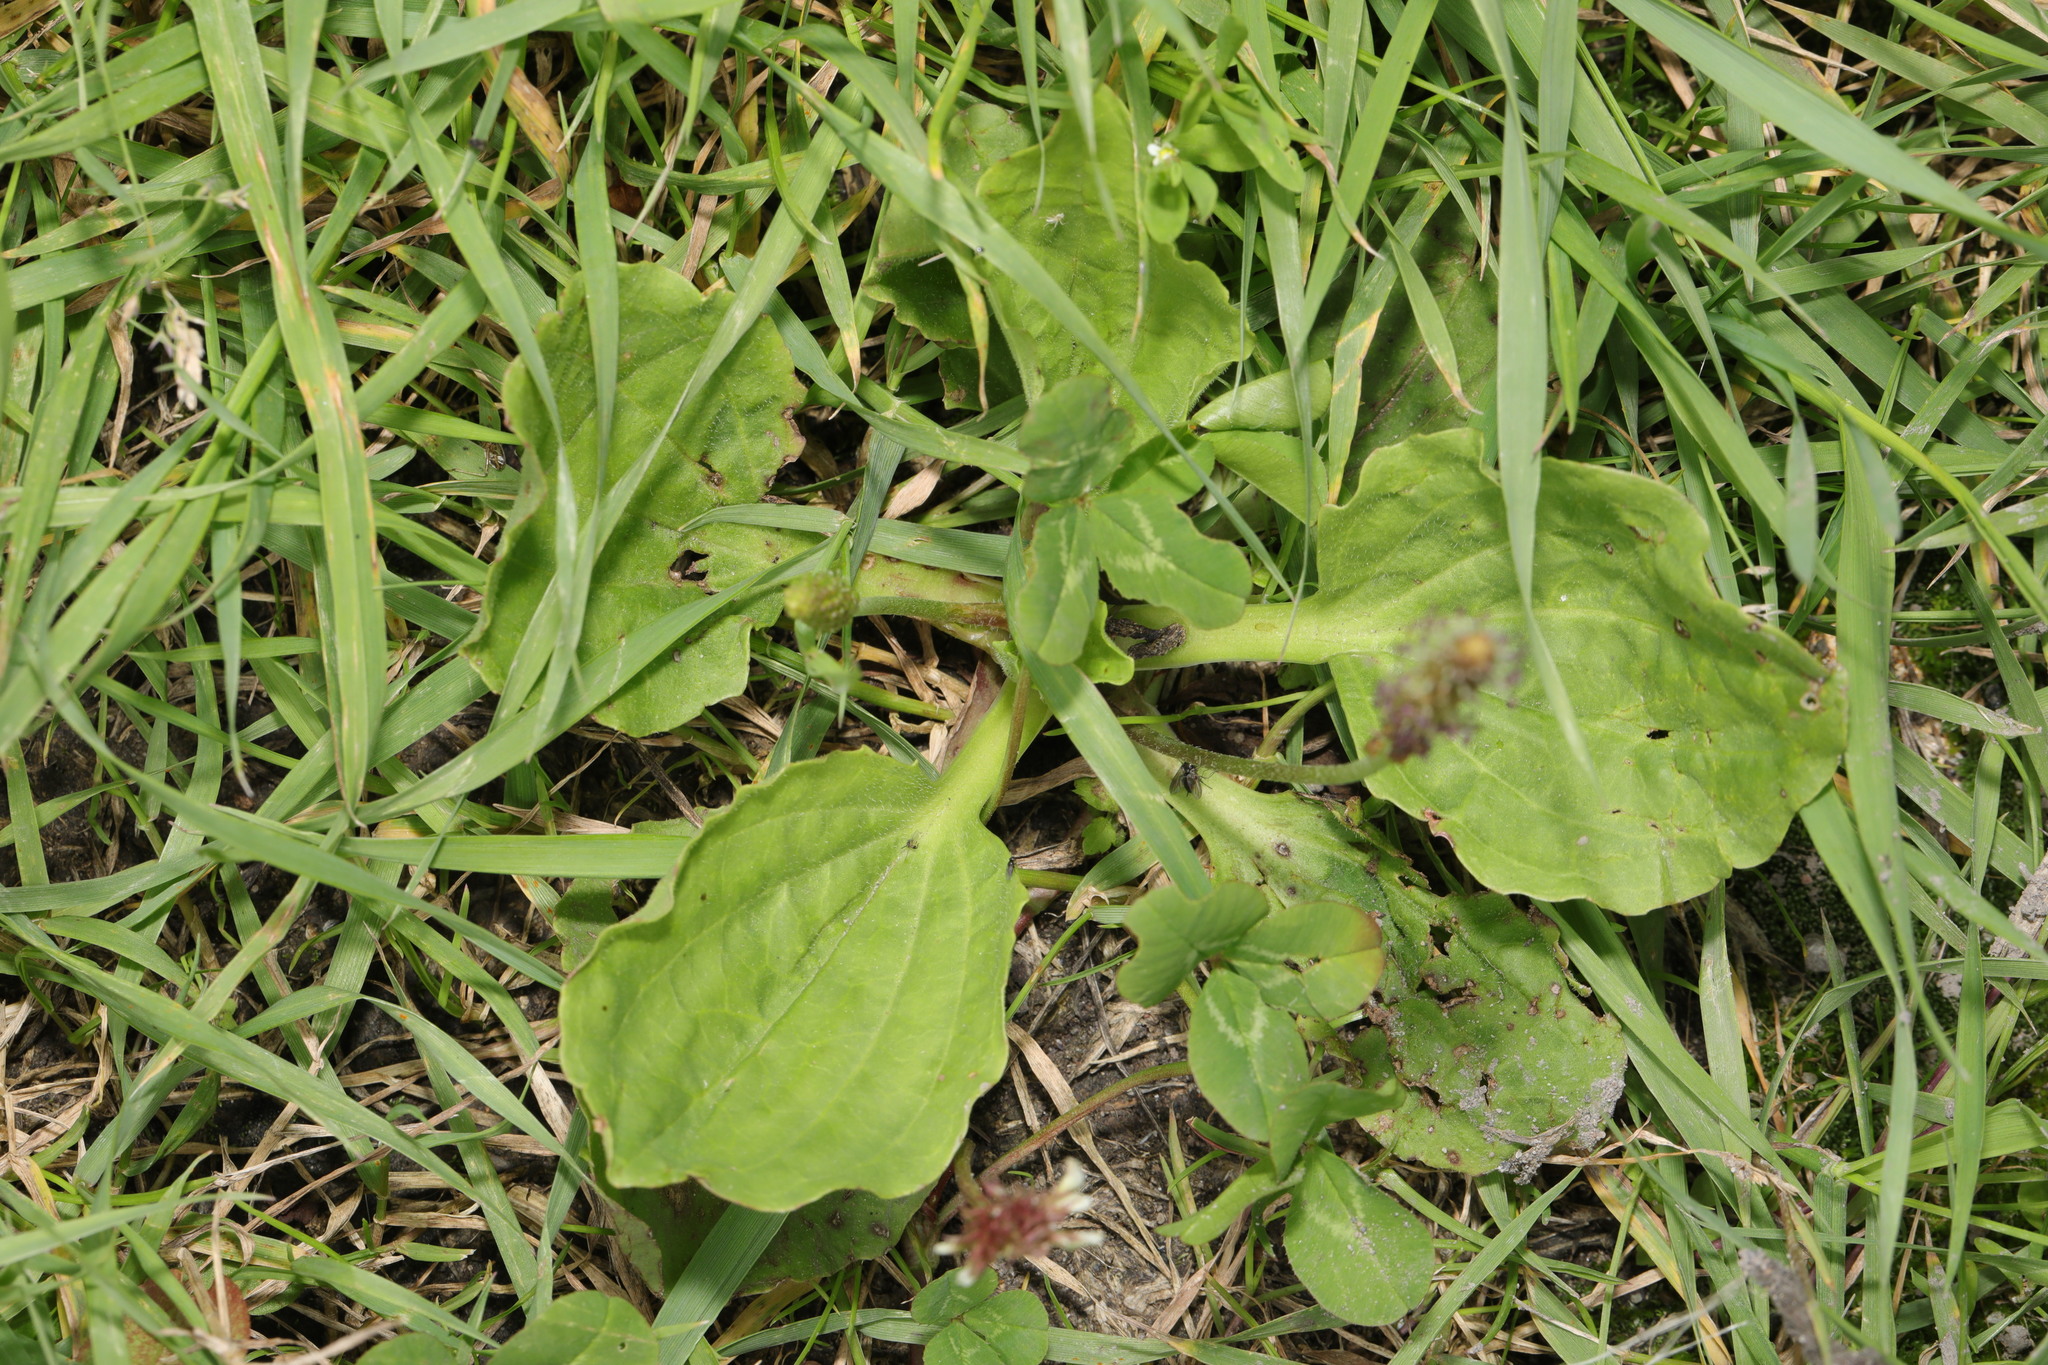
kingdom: Plantae
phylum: Tracheophyta
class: Magnoliopsida
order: Lamiales
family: Plantaginaceae
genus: Plantago
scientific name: Plantago major
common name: Common plantain
